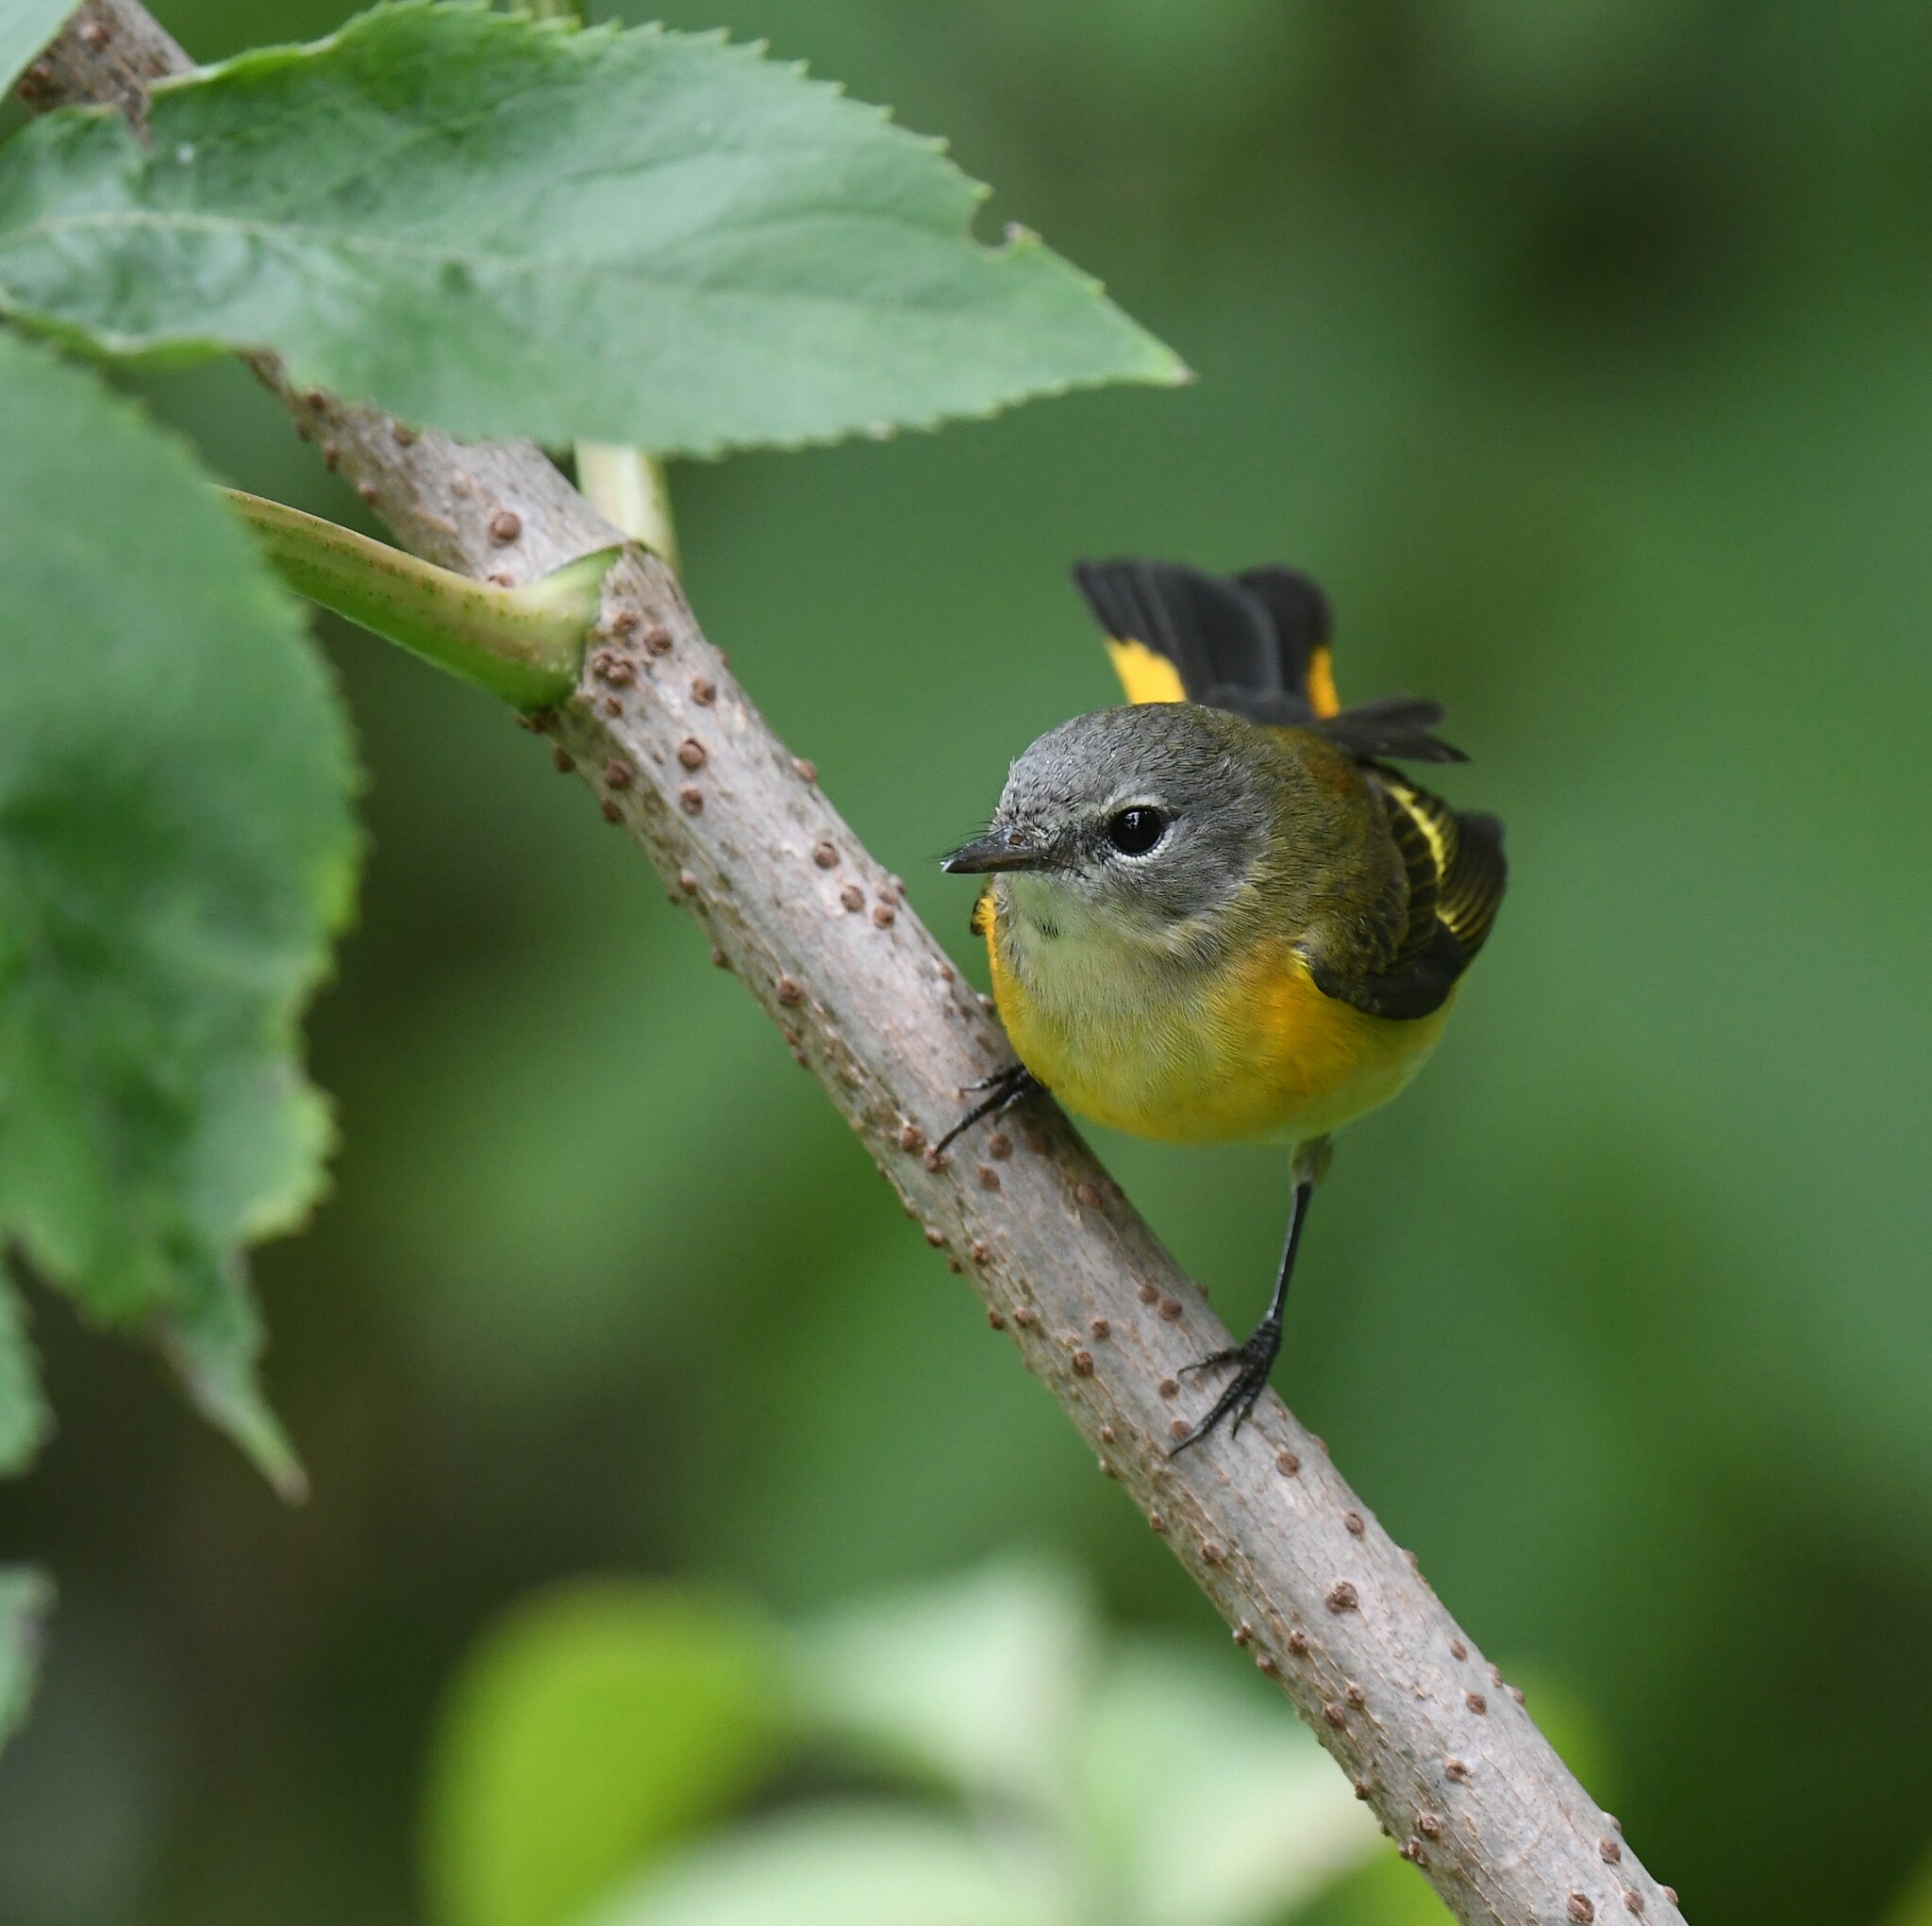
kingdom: Animalia
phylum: Chordata
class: Aves
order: Passeriformes
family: Parulidae
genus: Setophaga
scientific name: Setophaga ruticilla
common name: American redstart
